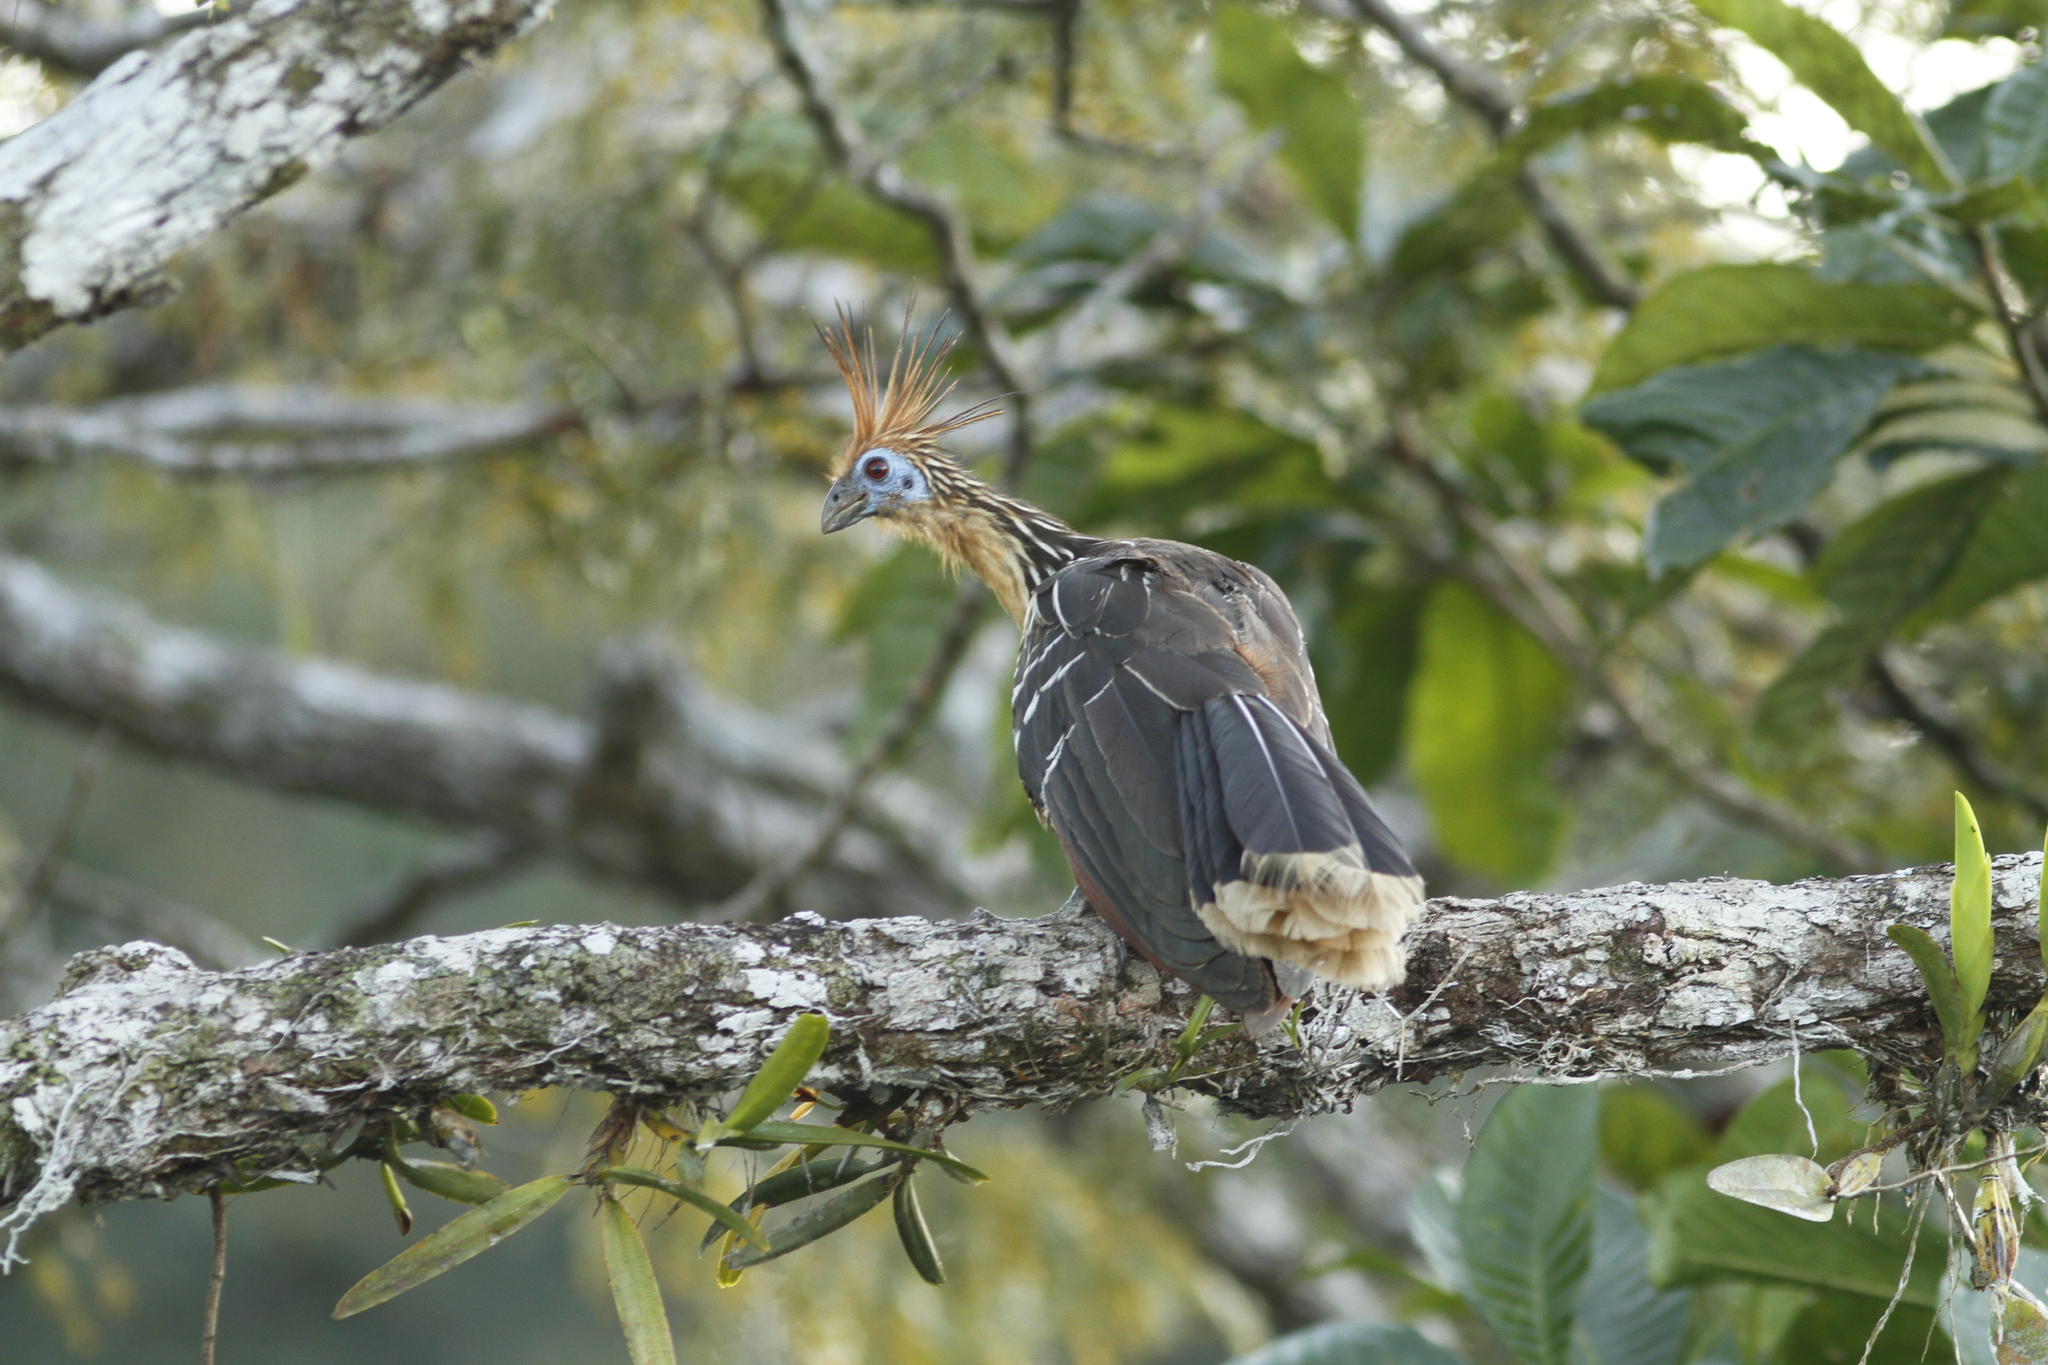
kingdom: Animalia
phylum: Chordata
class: Aves
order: Opisthocomiformes
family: Opisthocomidae
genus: Opisthocomus
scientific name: Opisthocomus hoazin
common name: Hoatzin
